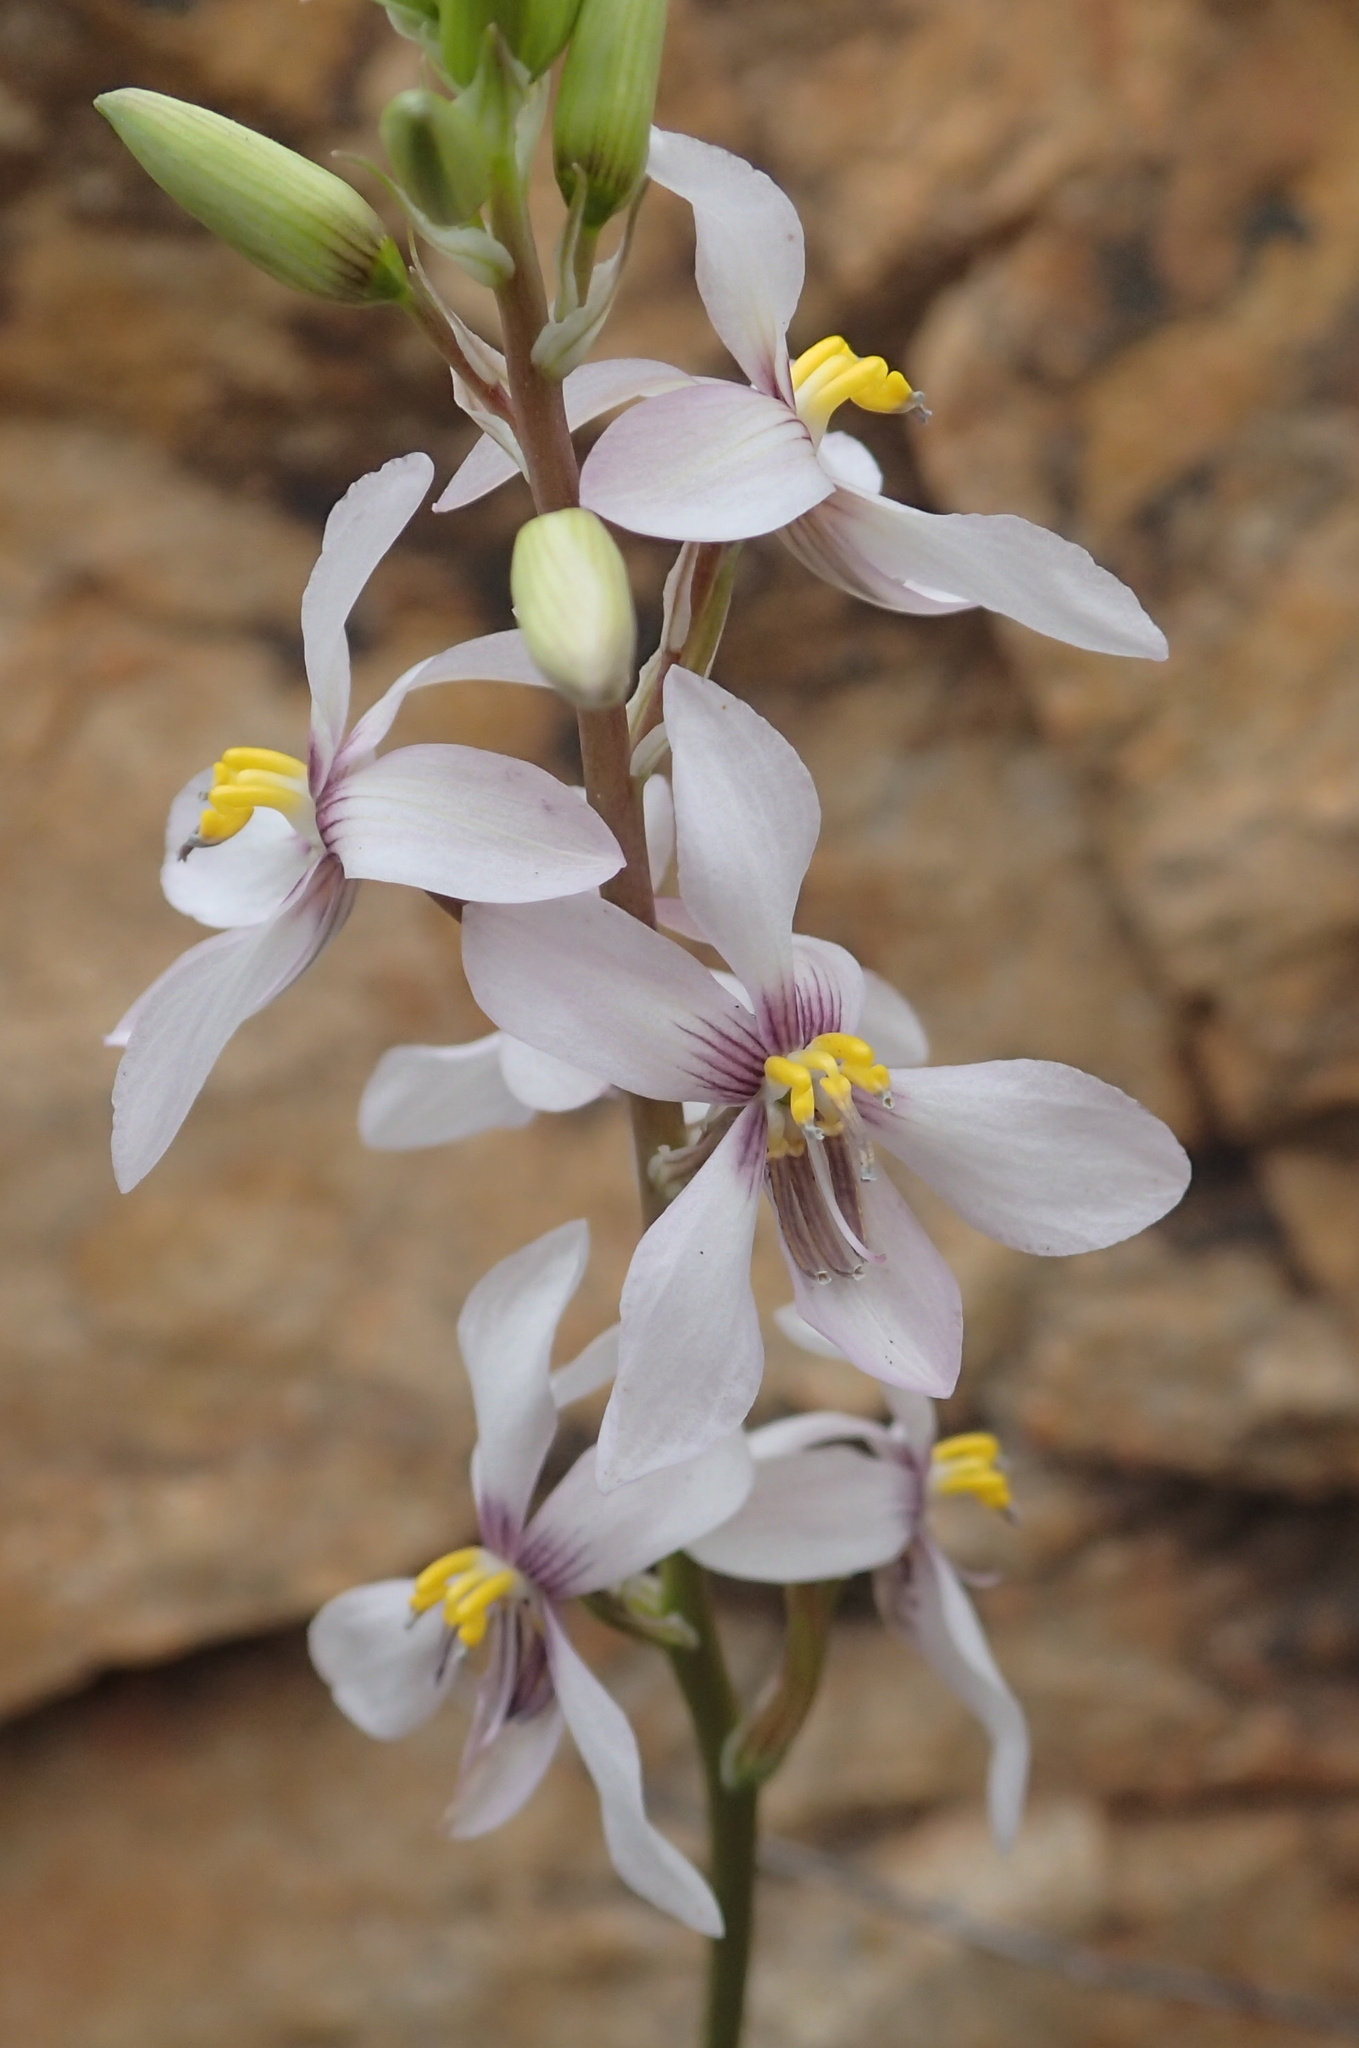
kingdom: Plantae
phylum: Tracheophyta
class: Liliopsida
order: Asparagales
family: Tecophilaeaceae
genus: Cyanella
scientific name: Cyanella orchidiformis
